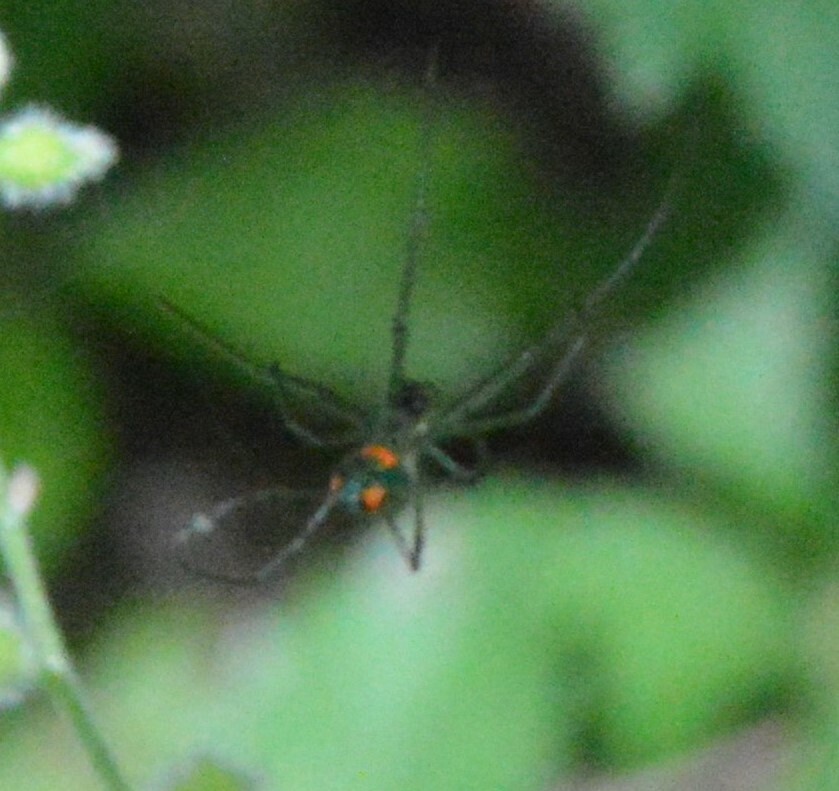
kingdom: Animalia
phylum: Arthropoda
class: Arachnida
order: Araneae
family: Tetragnathidae
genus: Leucauge
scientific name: Leucauge argyrobapta
